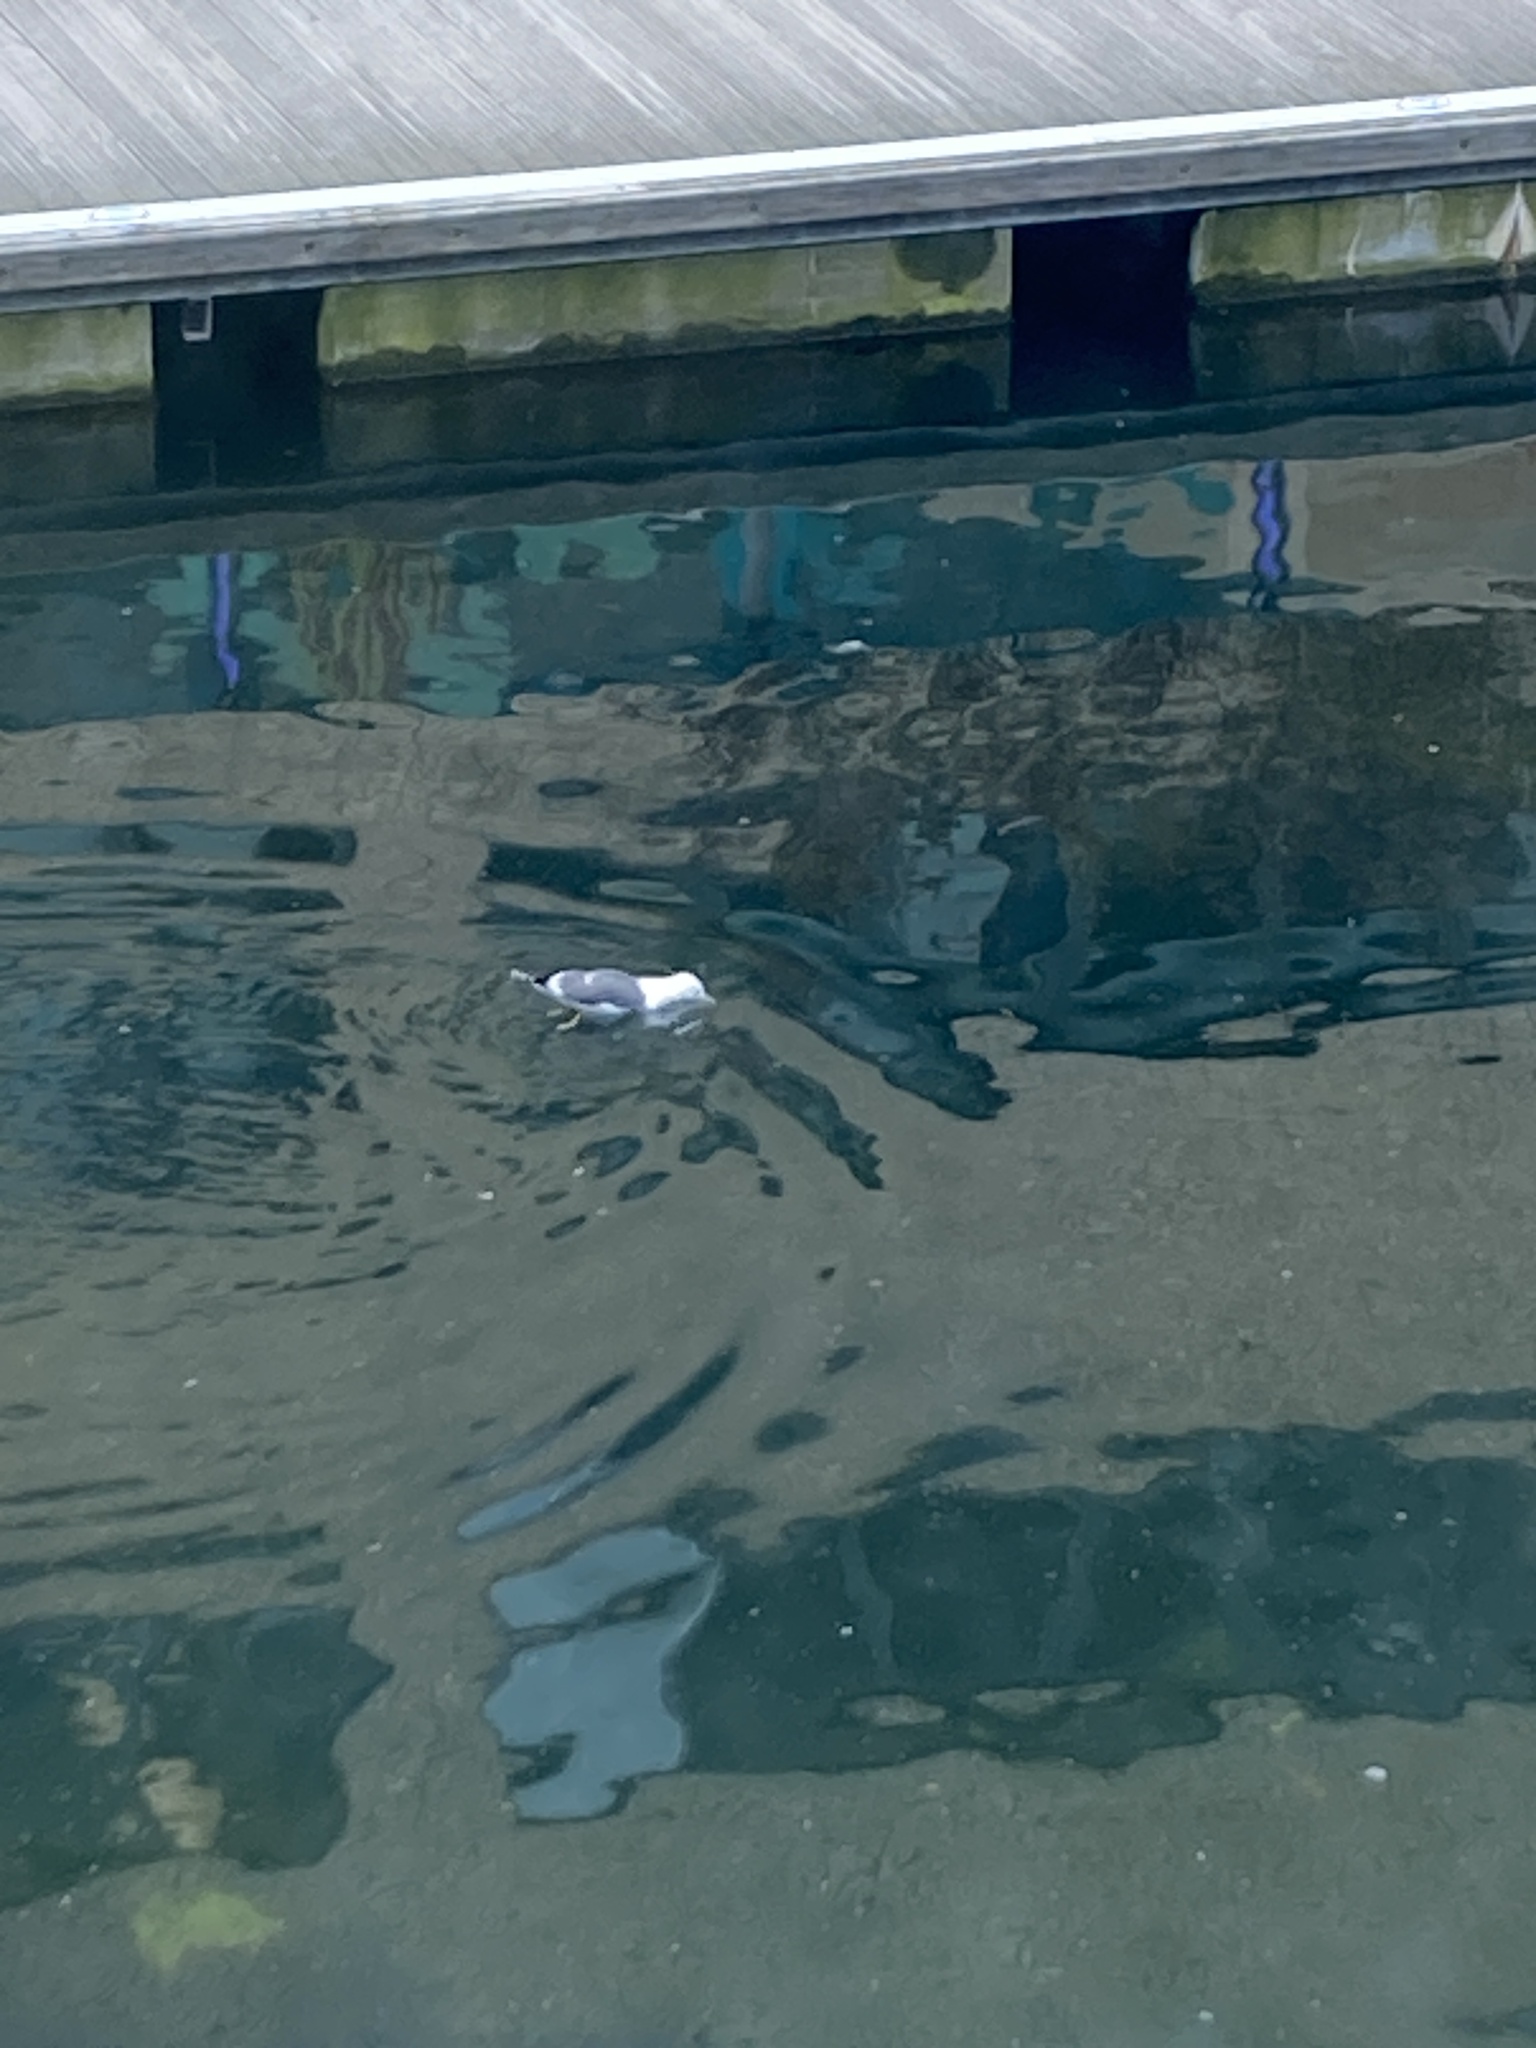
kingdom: Animalia
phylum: Chordata
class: Aves
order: Charadriiformes
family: Laridae
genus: Larus
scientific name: Larus fuscus
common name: Lesser black-backed gull
